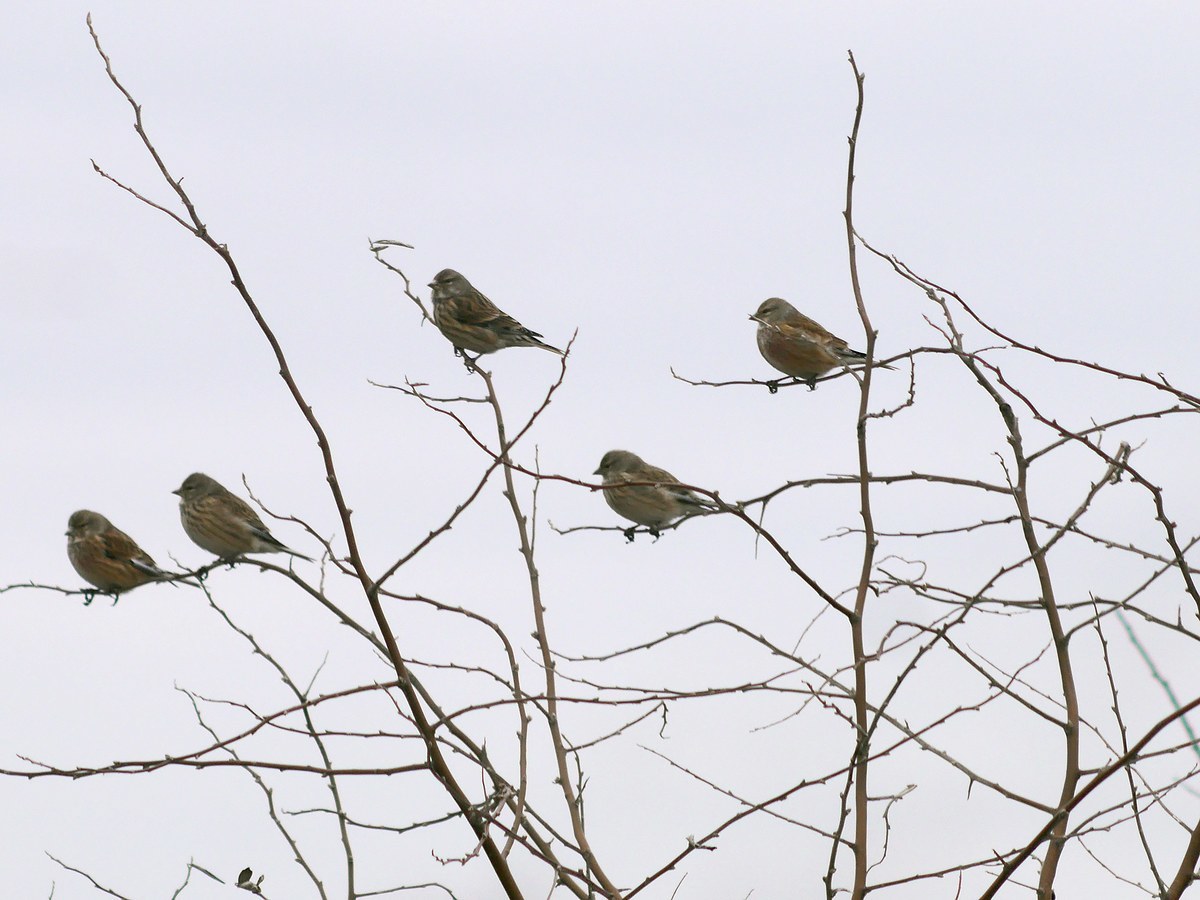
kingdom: Animalia
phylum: Chordata
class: Aves
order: Passeriformes
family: Fringillidae
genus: Linaria
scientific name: Linaria cannabina
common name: Common linnet
